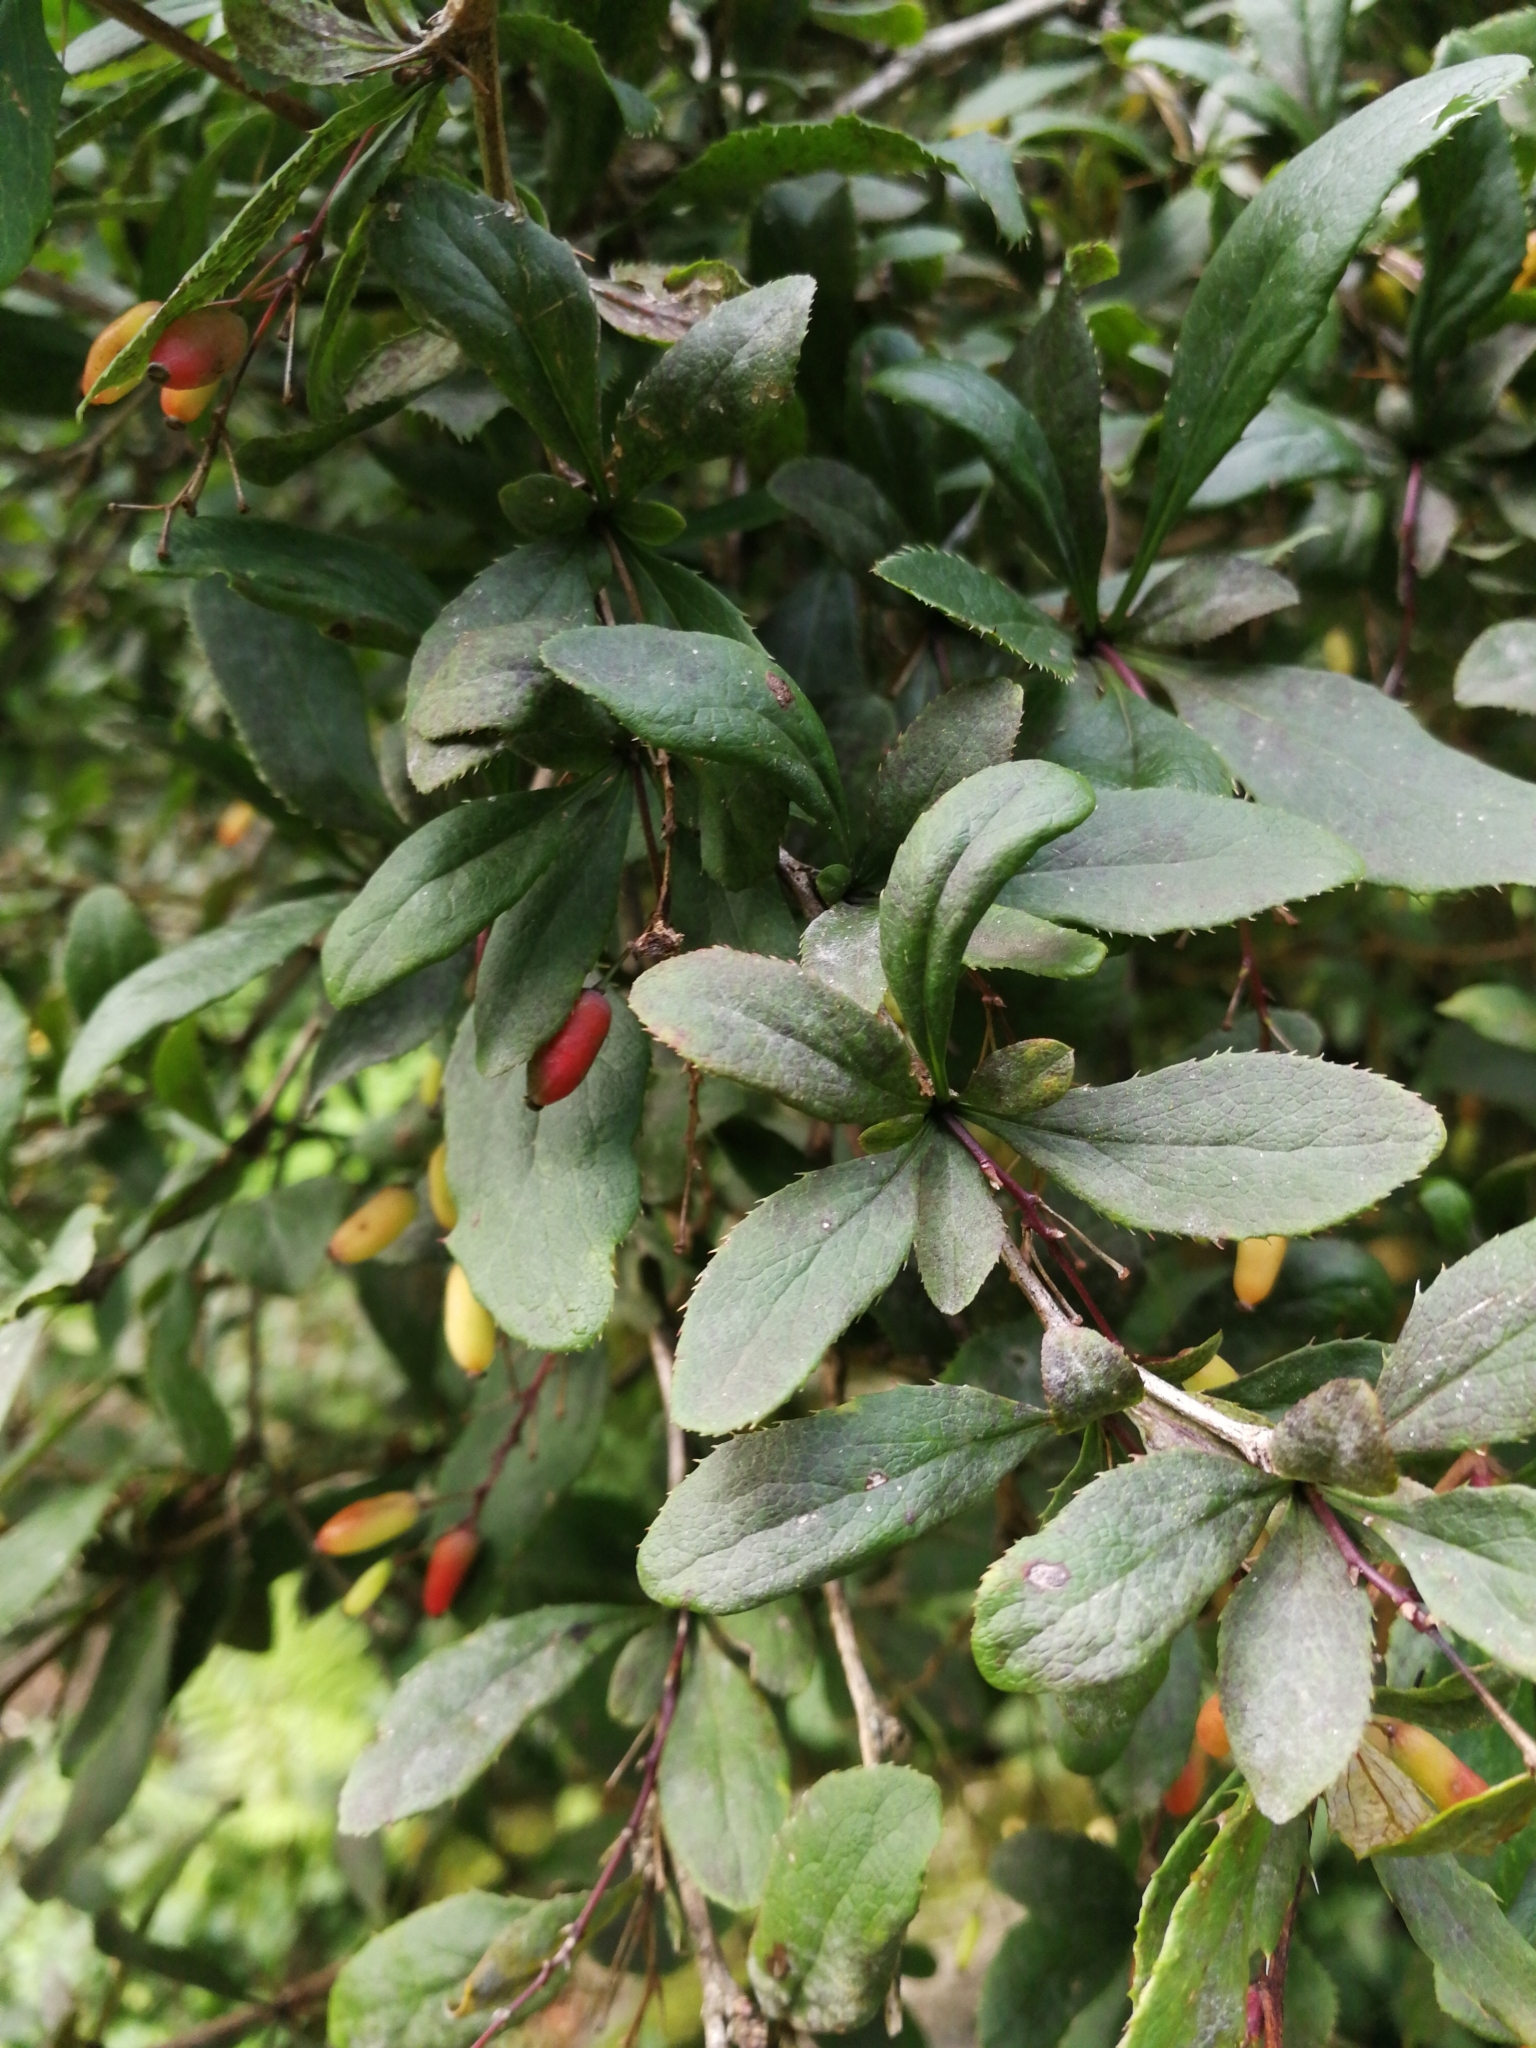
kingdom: Plantae
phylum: Tracheophyta
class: Magnoliopsida
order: Ranunculales
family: Berberidaceae
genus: Berberis
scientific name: Berberis vulgaris
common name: Barberry
